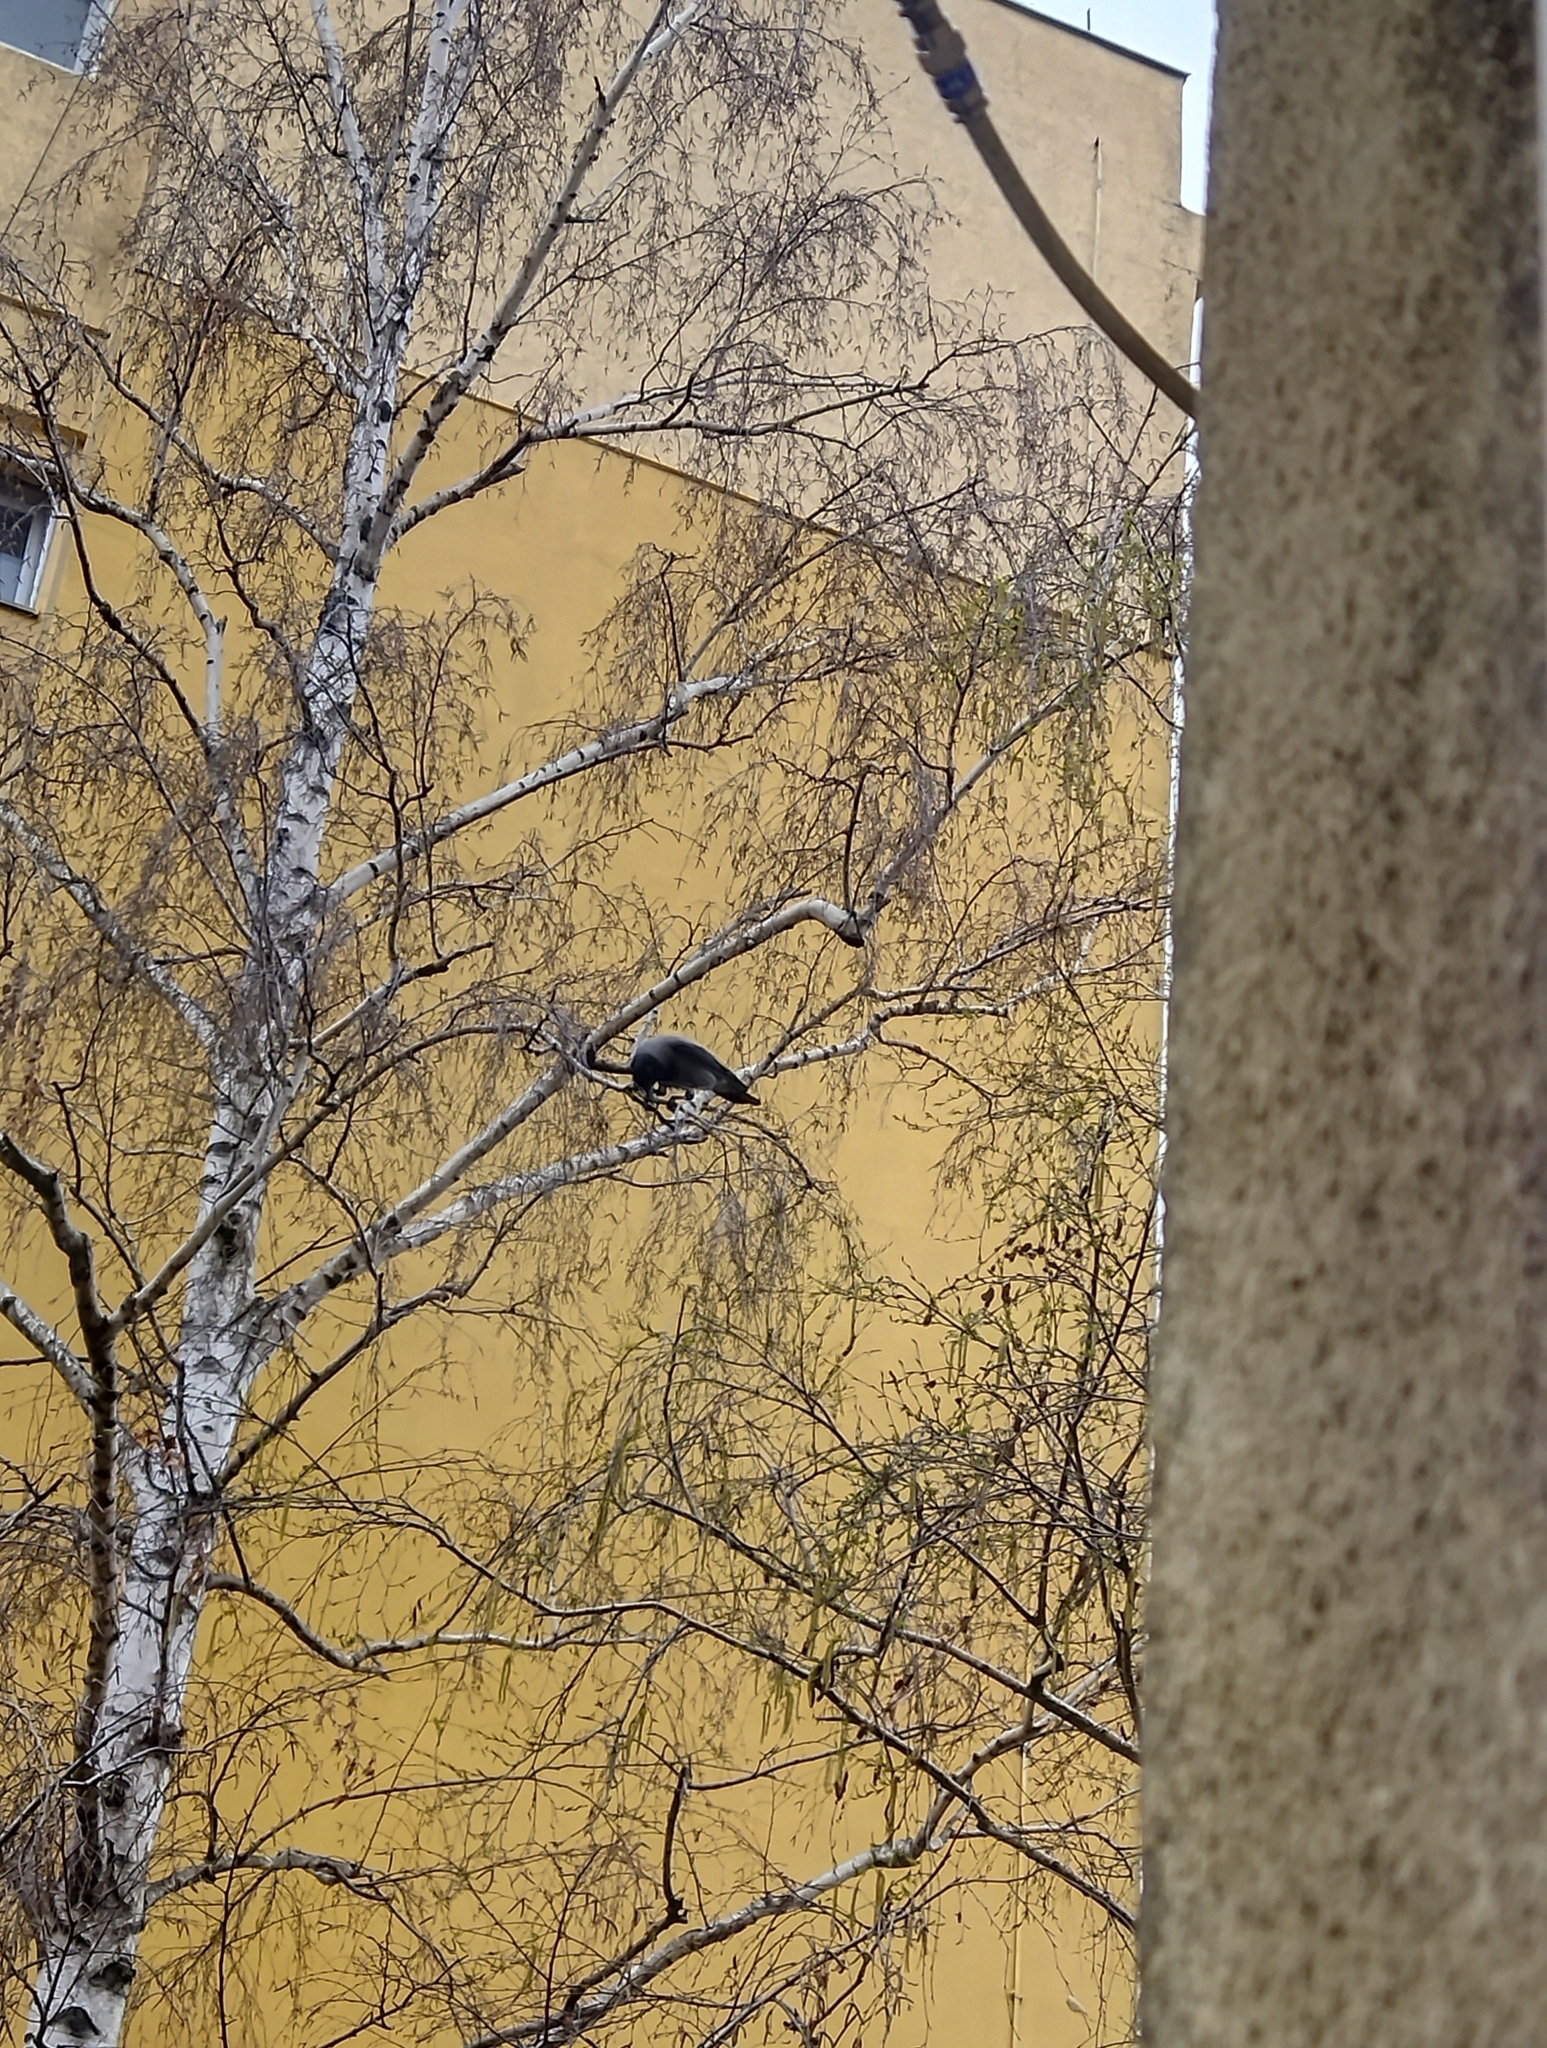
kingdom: Animalia
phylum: Chordata
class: Aves
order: Passeriformes
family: Corvidae
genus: Corvus
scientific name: Corvus cornix
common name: Hooded crow
